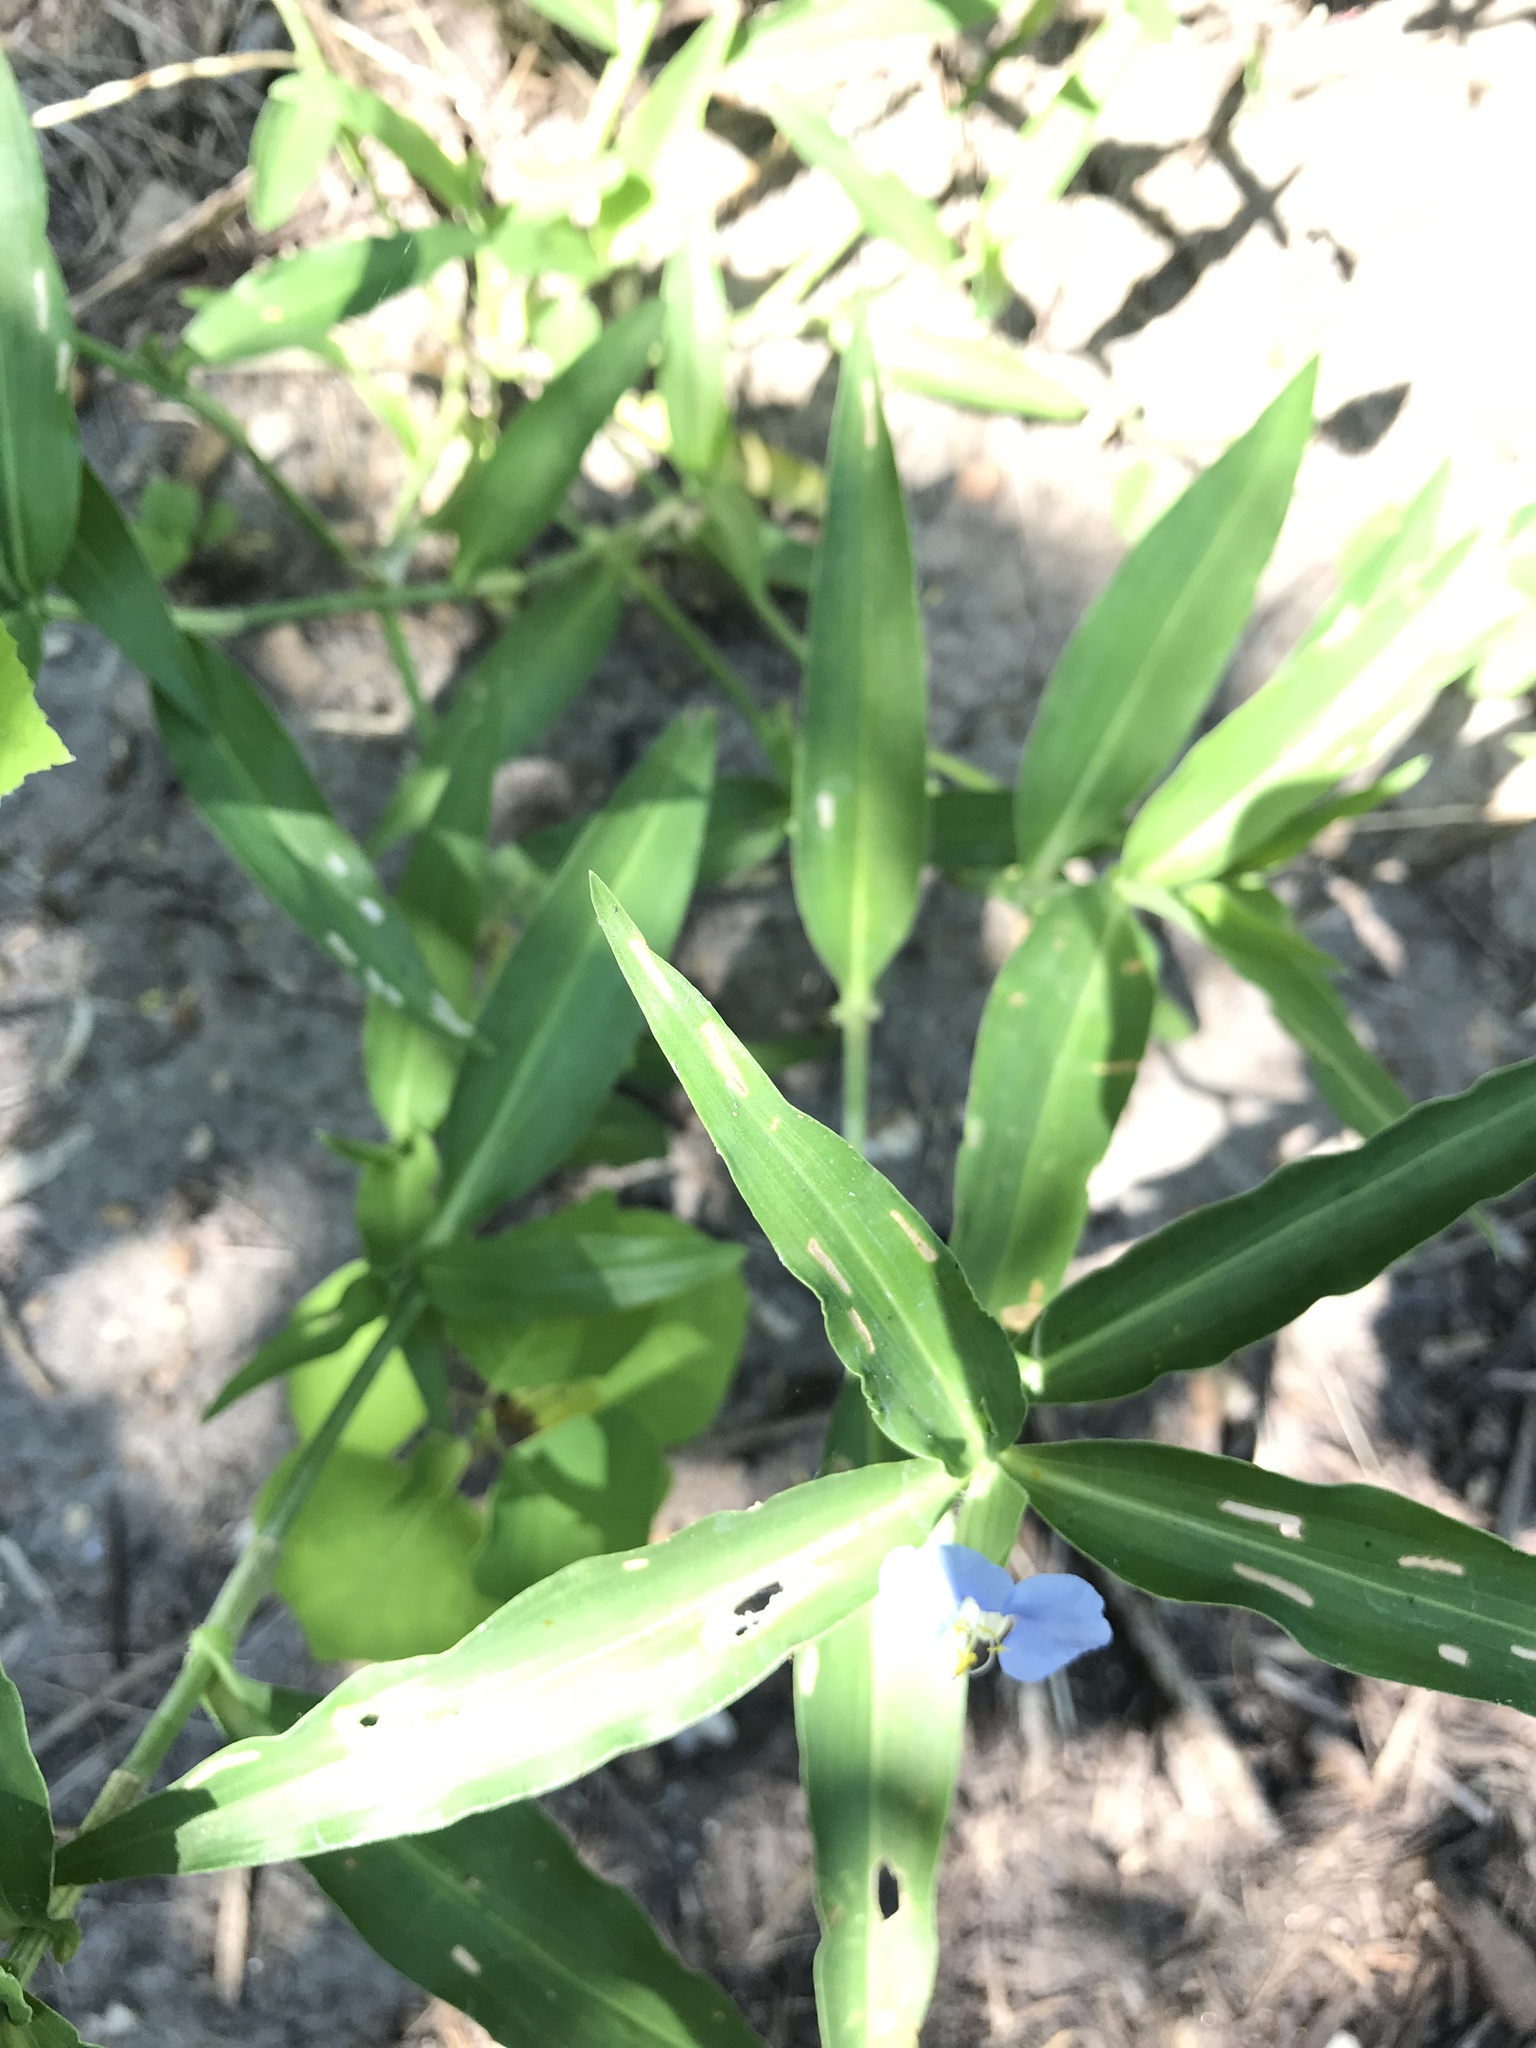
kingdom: Plantae
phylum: Tracheophyta
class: Liliopsida
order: Commelinales
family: Commelinaceae
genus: Commelina
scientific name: Commelina erecta
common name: Blousel blommetjie
